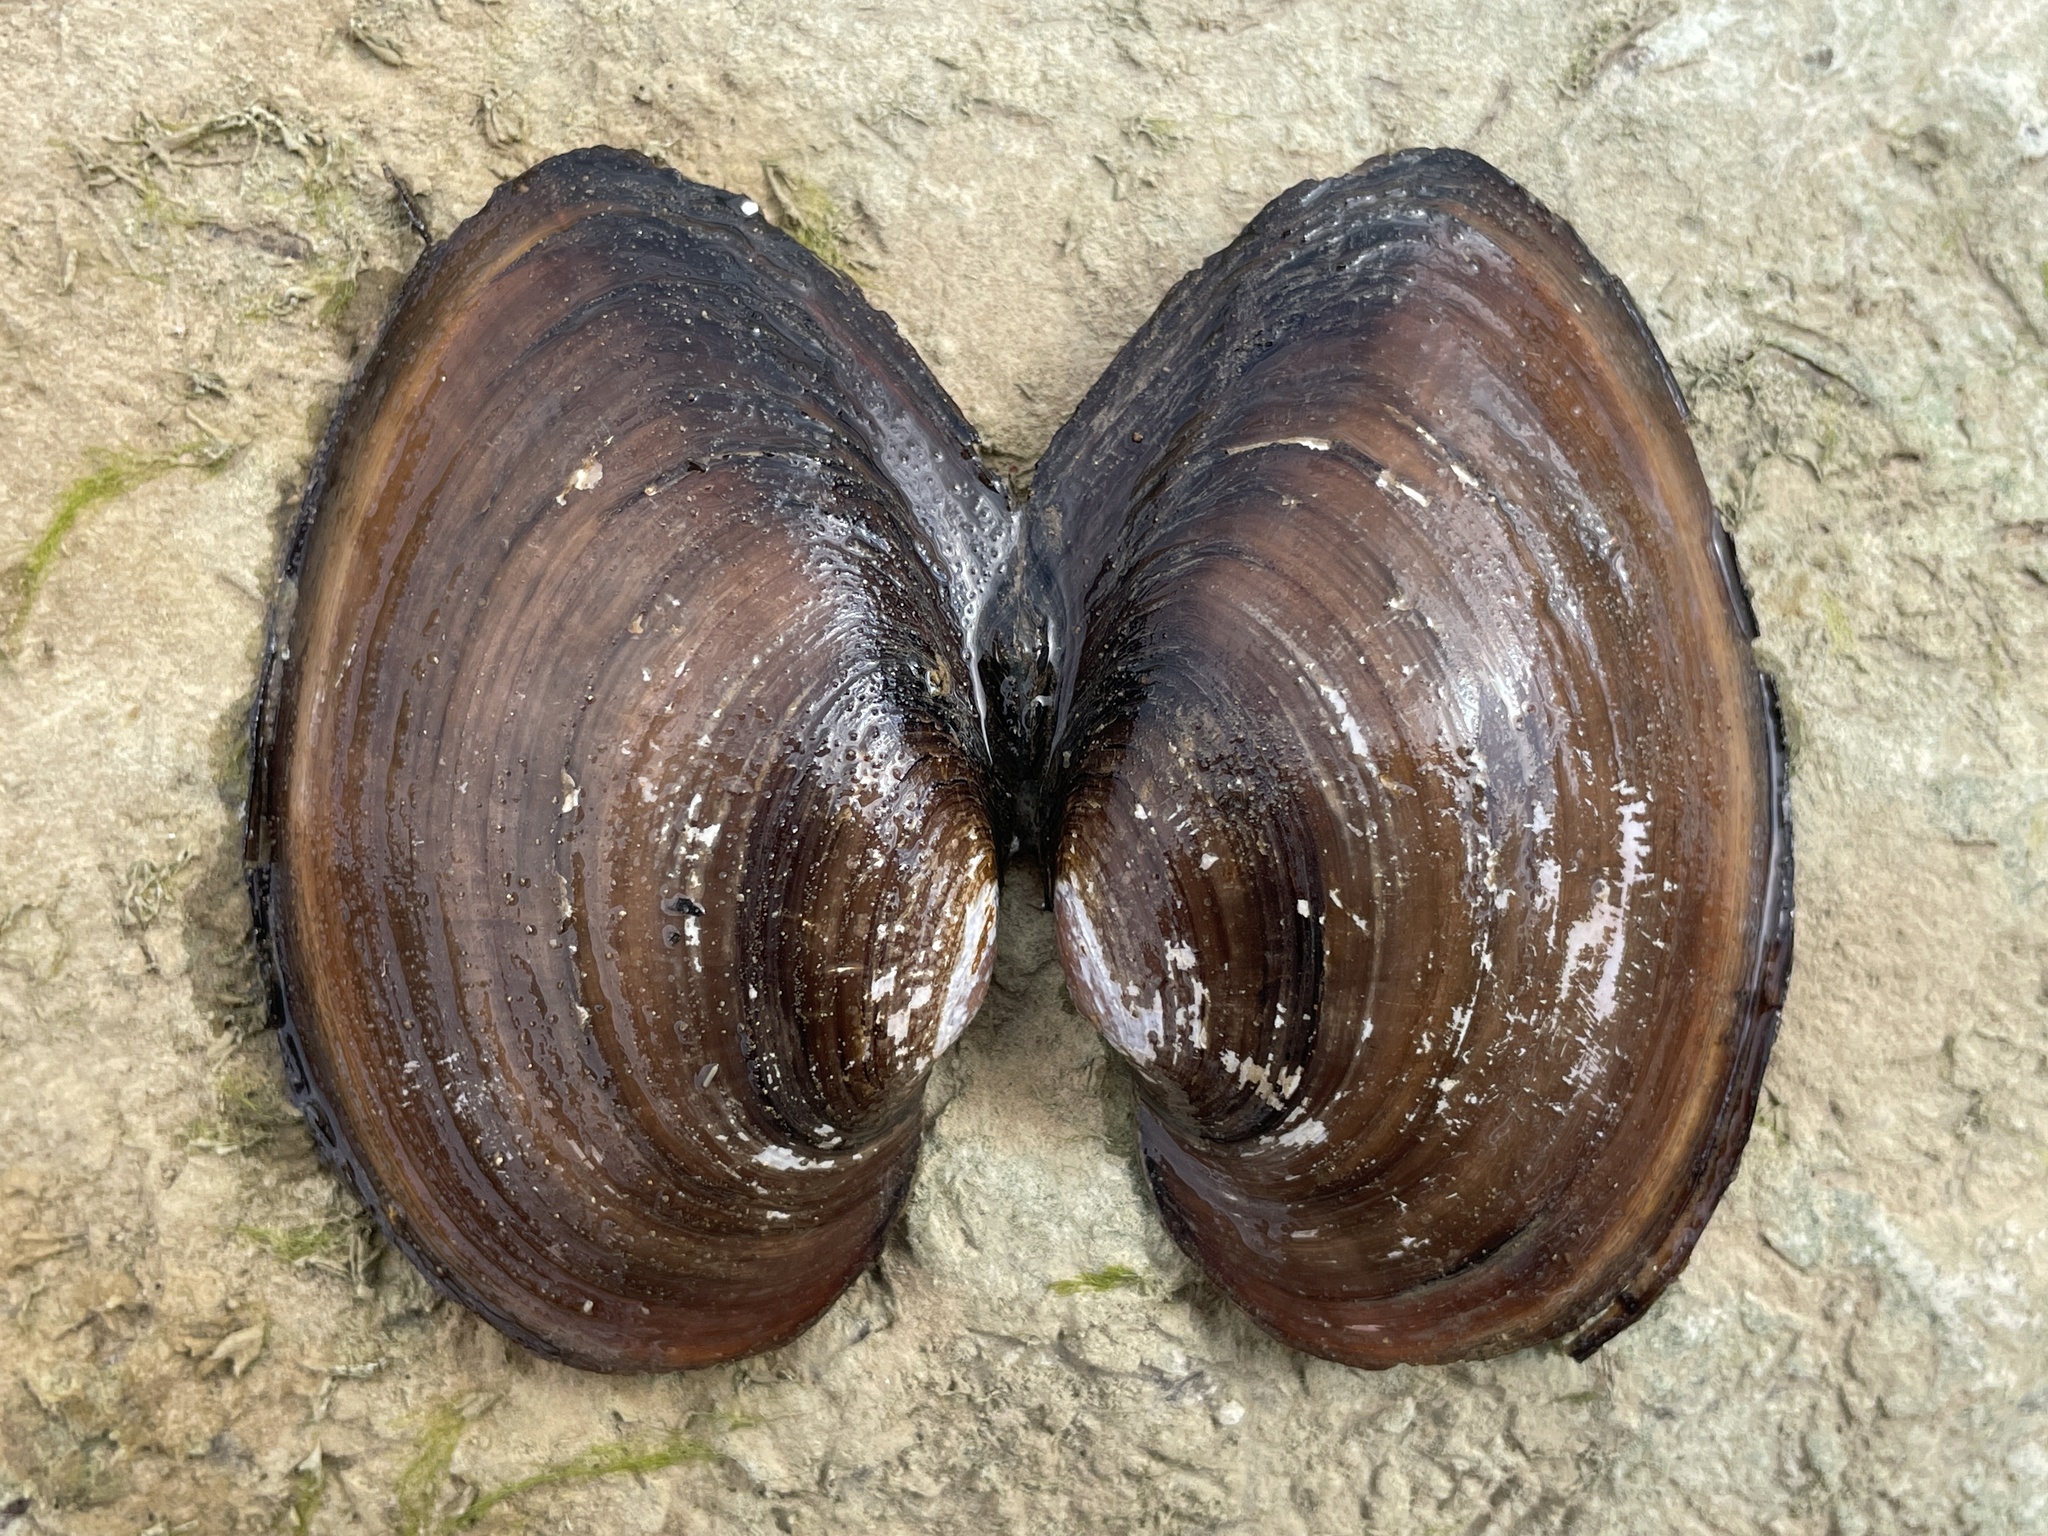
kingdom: Animalia
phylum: Mollusca
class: Bivalvia
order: Unionida
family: Unionidae
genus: Pyganodon
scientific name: Pyganodon grandis
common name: Giant floater
